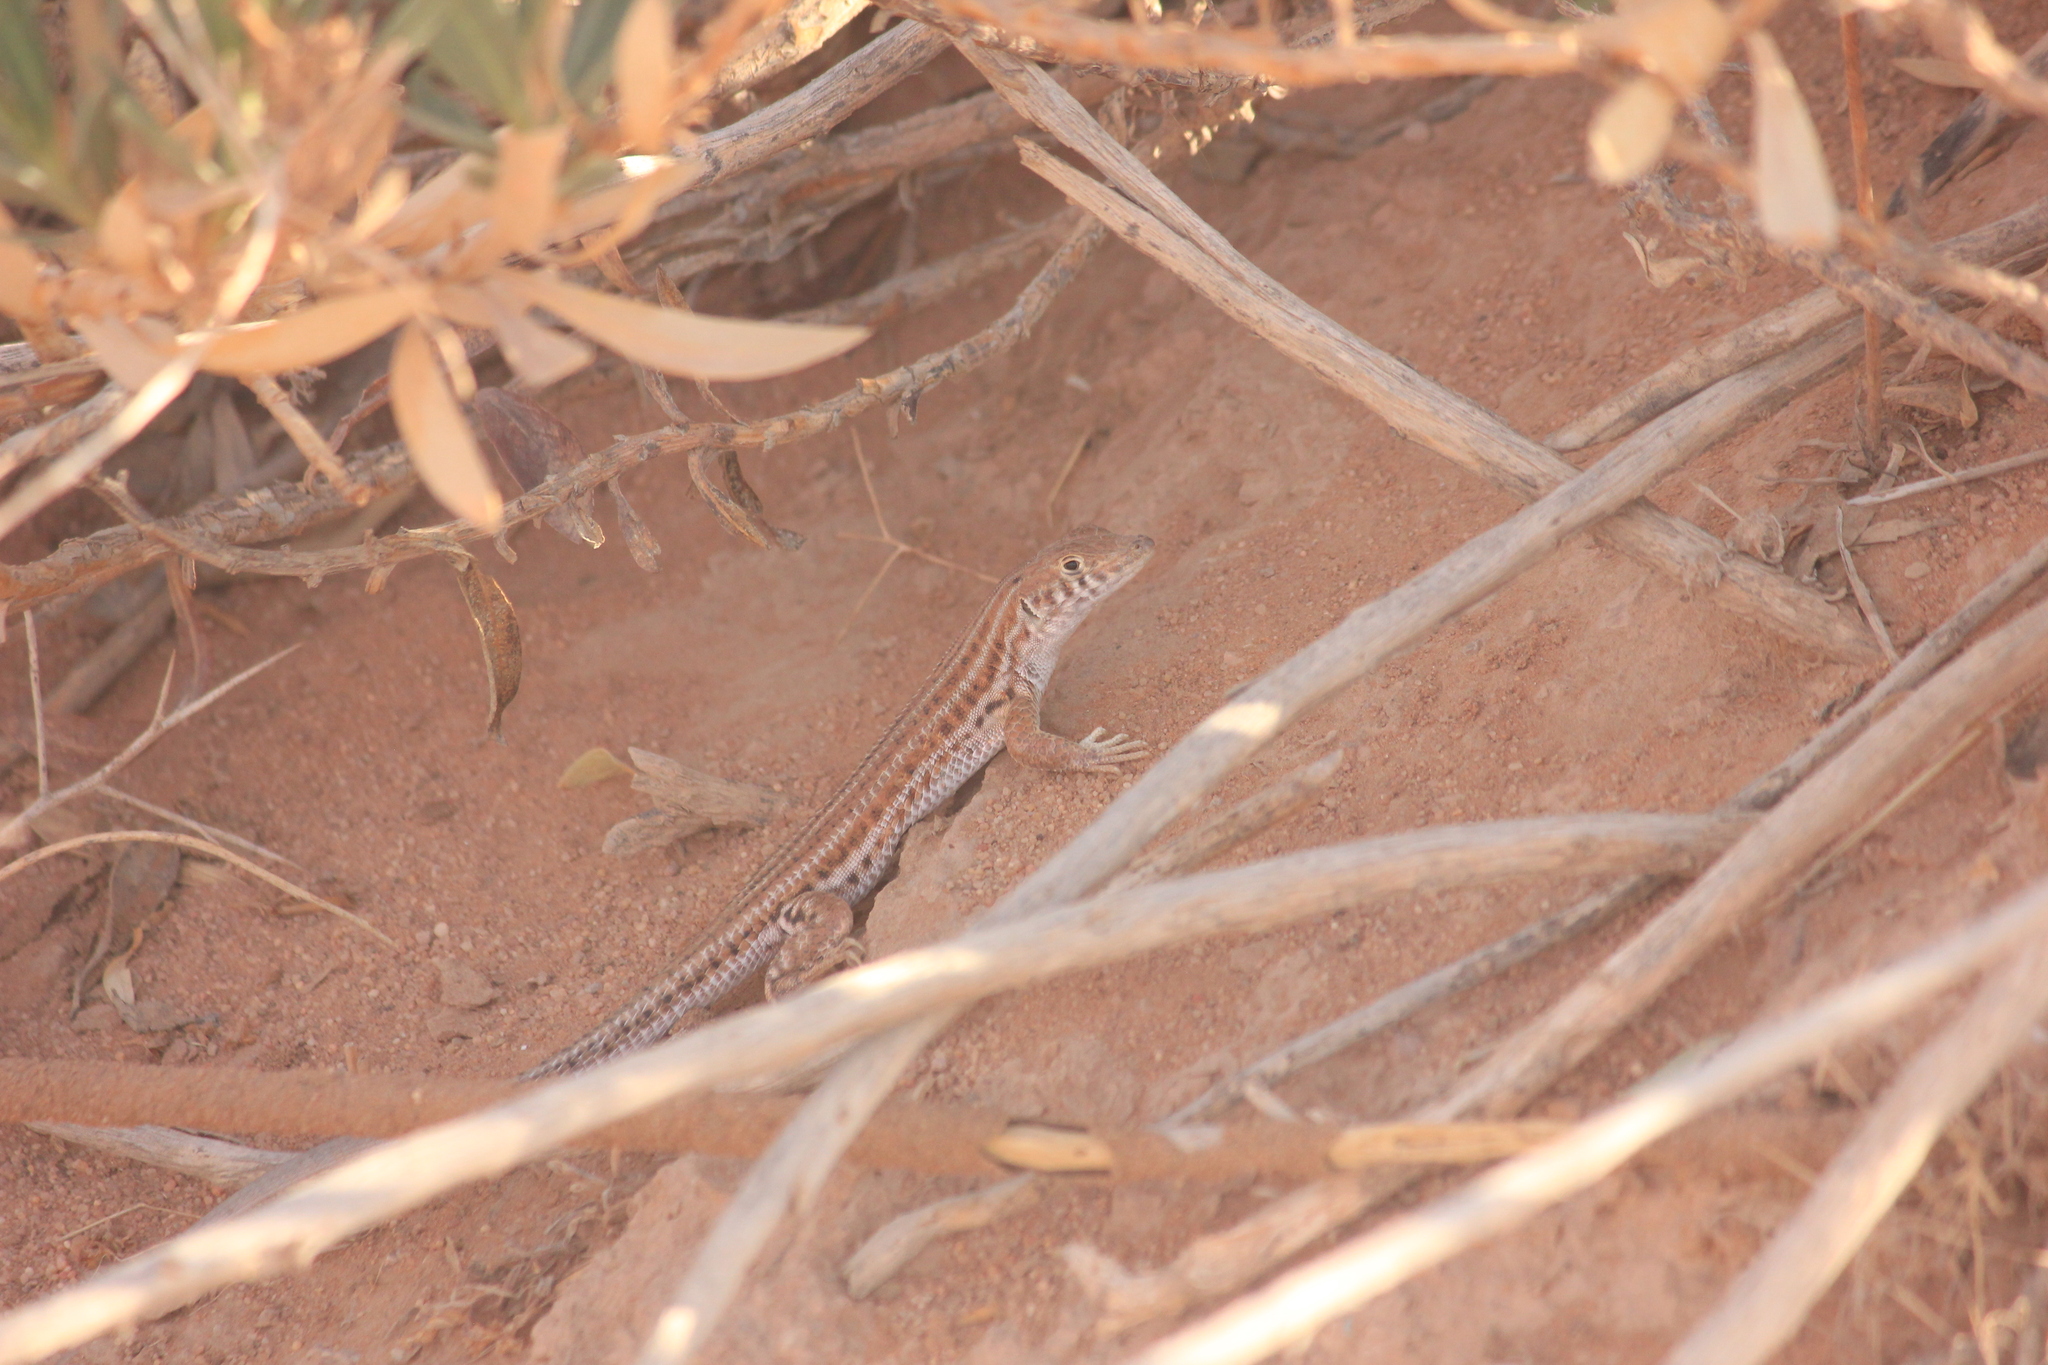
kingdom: Animalia
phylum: Chordata
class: Squamata
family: Lacertidae
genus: Acanthodactylus
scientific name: Acanthodactylus opheodurus
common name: Arnold's fringe-fingered lizard
